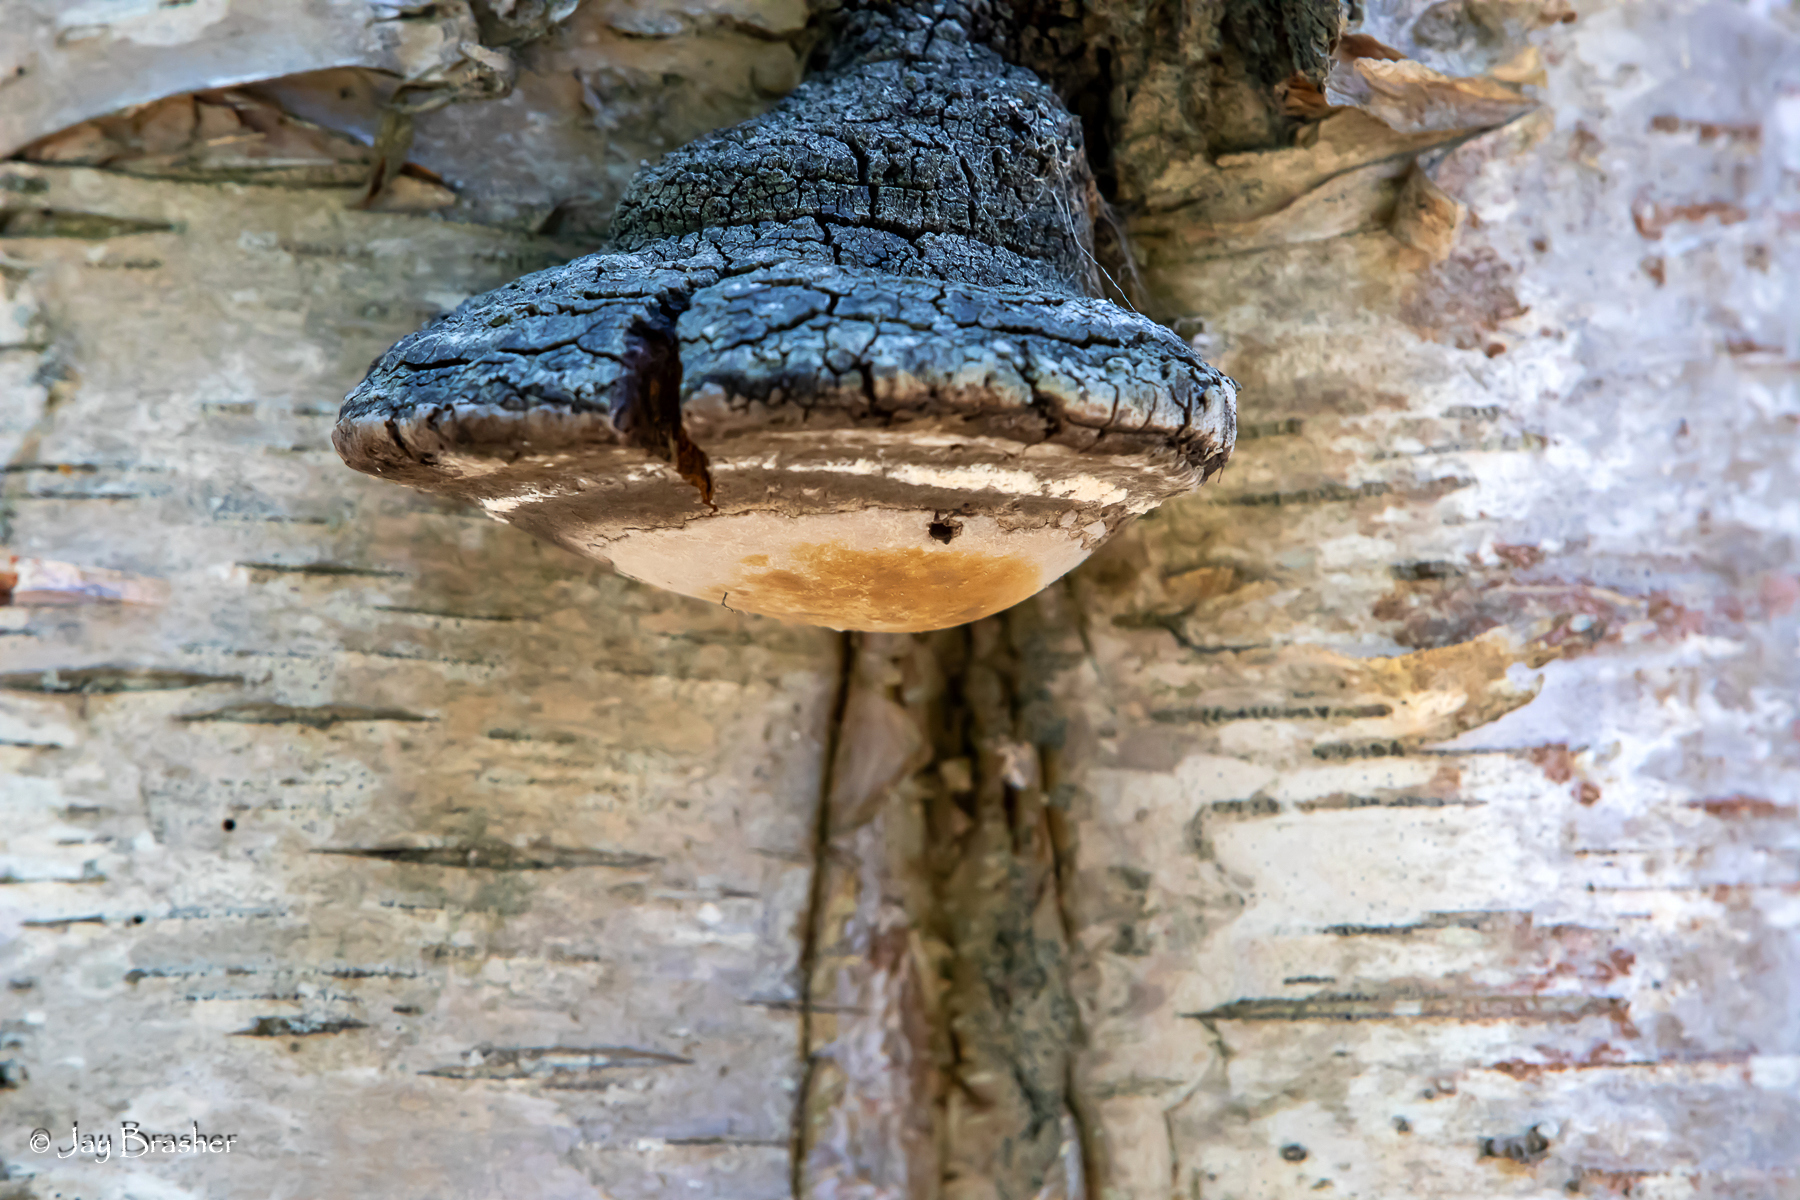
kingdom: Fungi
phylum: Basidiomycota
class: Agaricomycetes
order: Hymenochaetales
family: Hymenochaetaceae
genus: Phellinus
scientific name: Phellinus tremulae
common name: Aspen bracket
